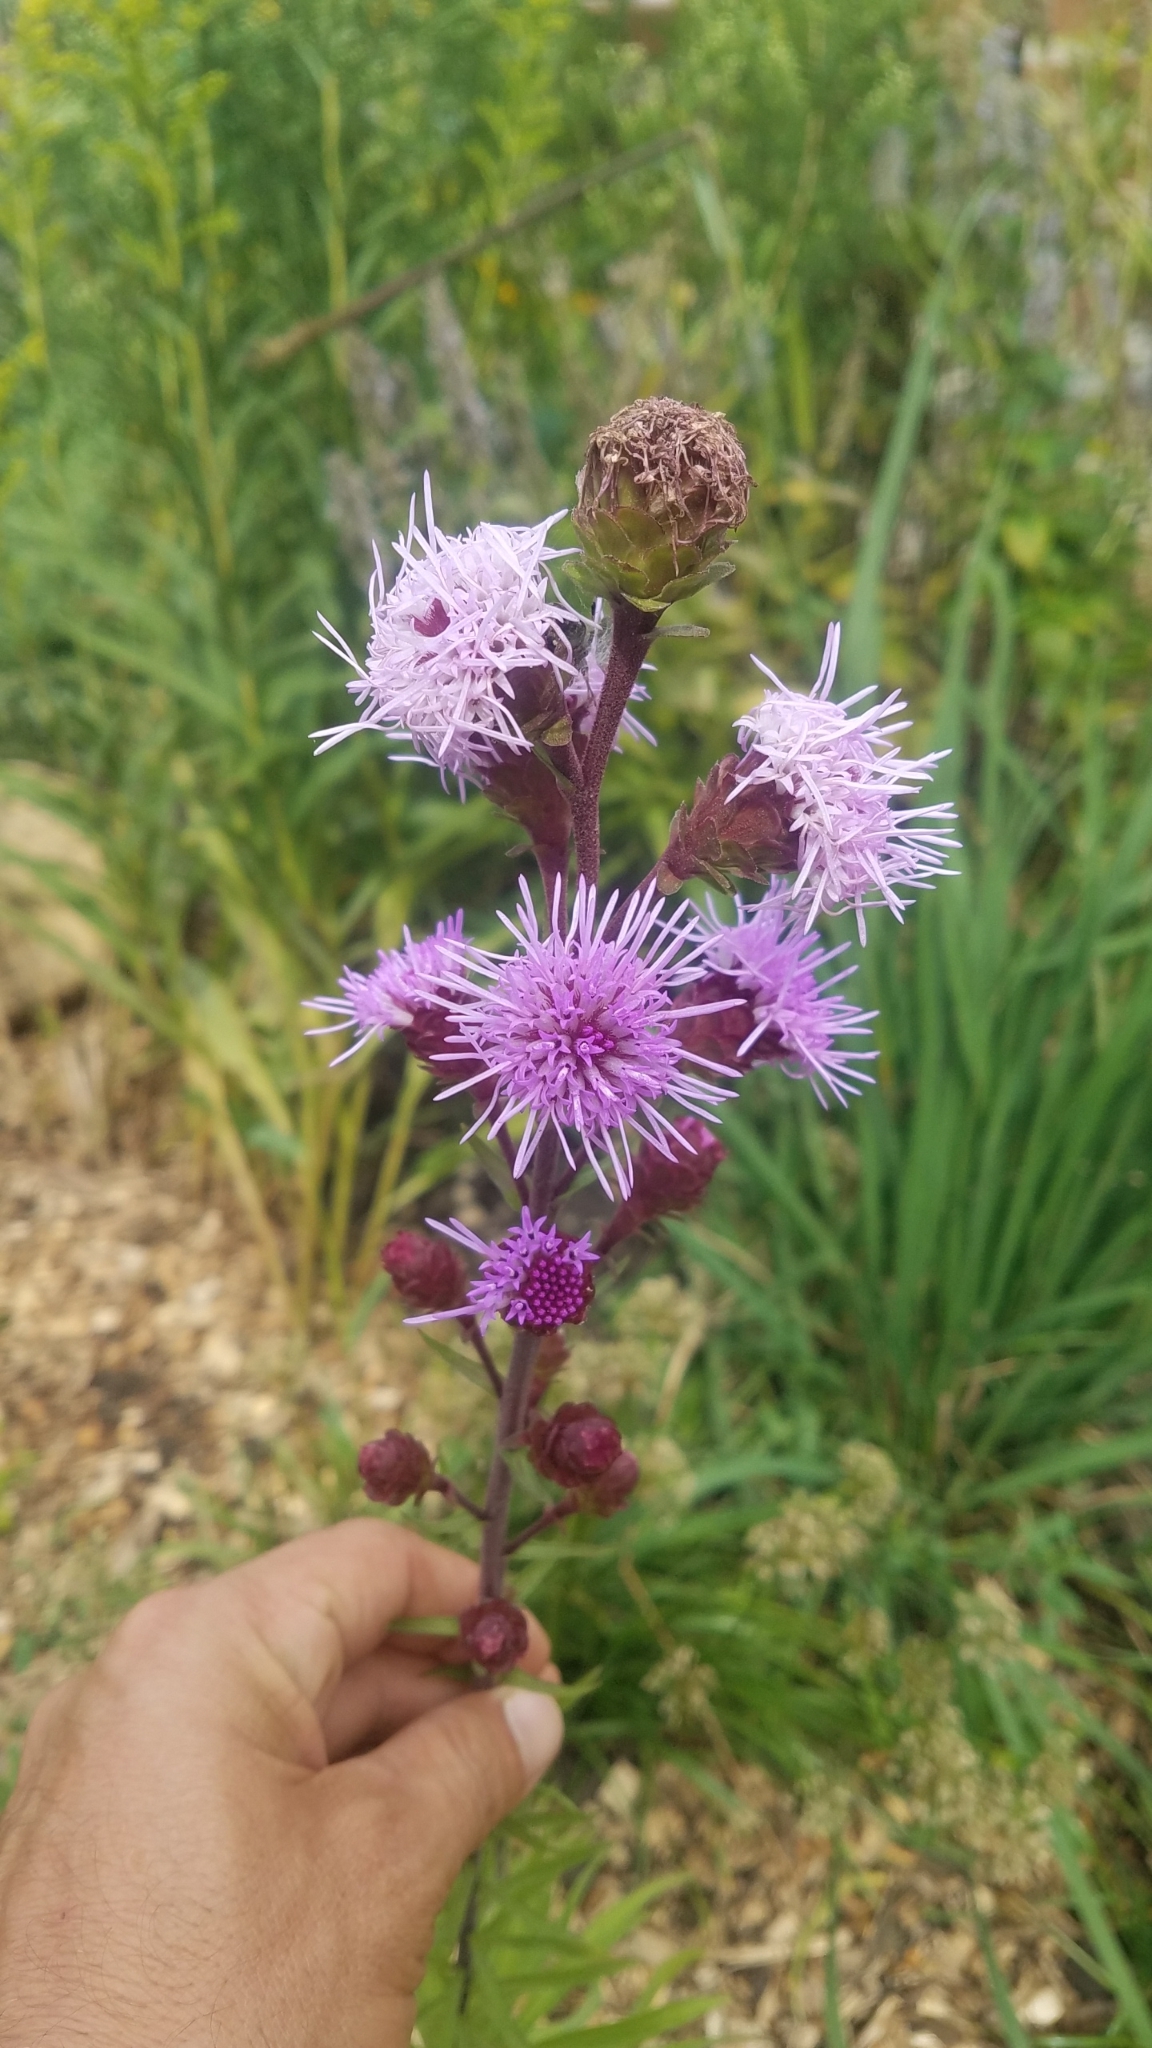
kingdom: Plantae
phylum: Tracheophyta
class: Magnoliopsida
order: Asterales
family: Asteraceae
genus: Liatris
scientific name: Liatris scariosa
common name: Northern gayfeather
